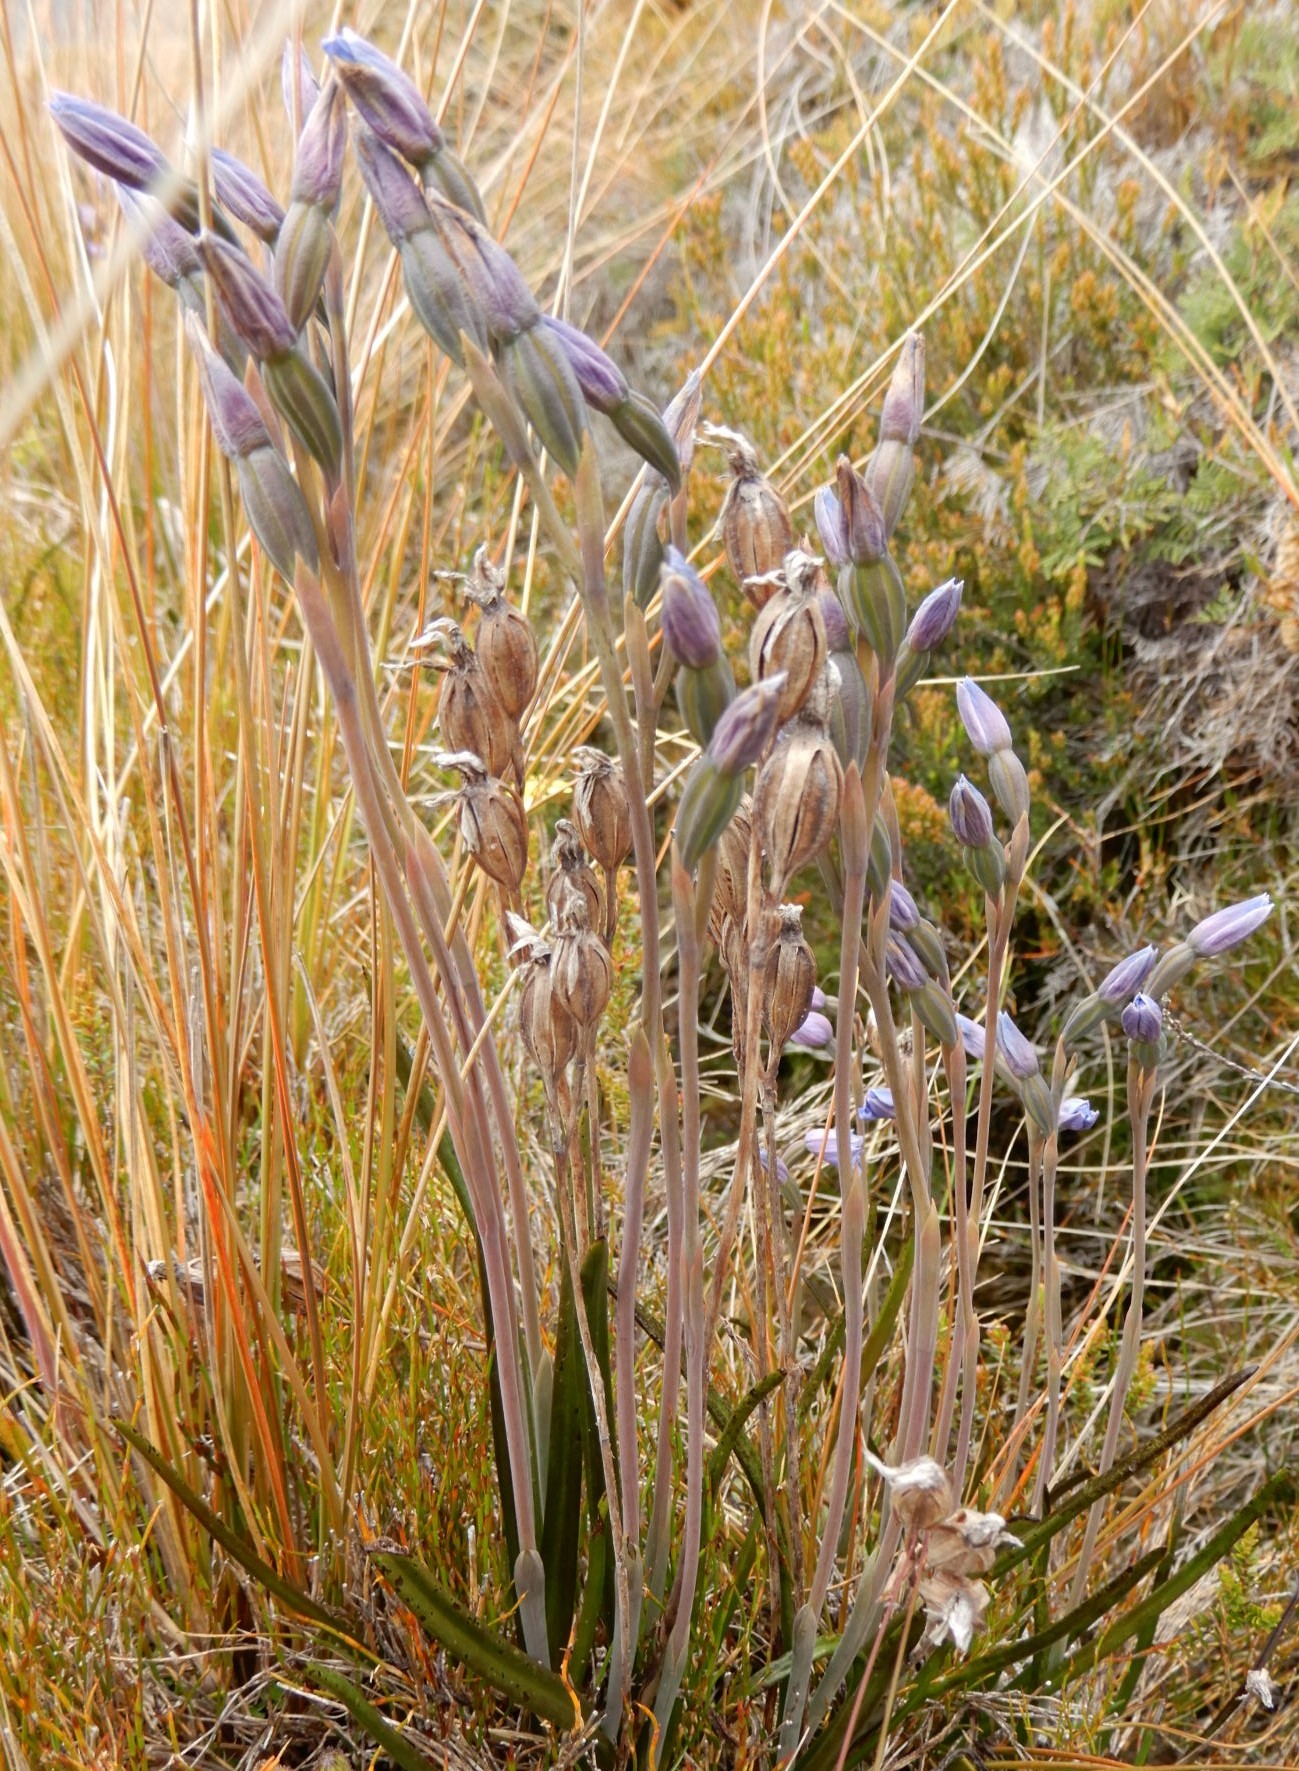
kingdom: Plantae
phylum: Tracheophyta
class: Liliopsida
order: Asparagales
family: Orchidaceae
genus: Thelymitra
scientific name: Thelymitra cyanea
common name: Blue sun-orchid
